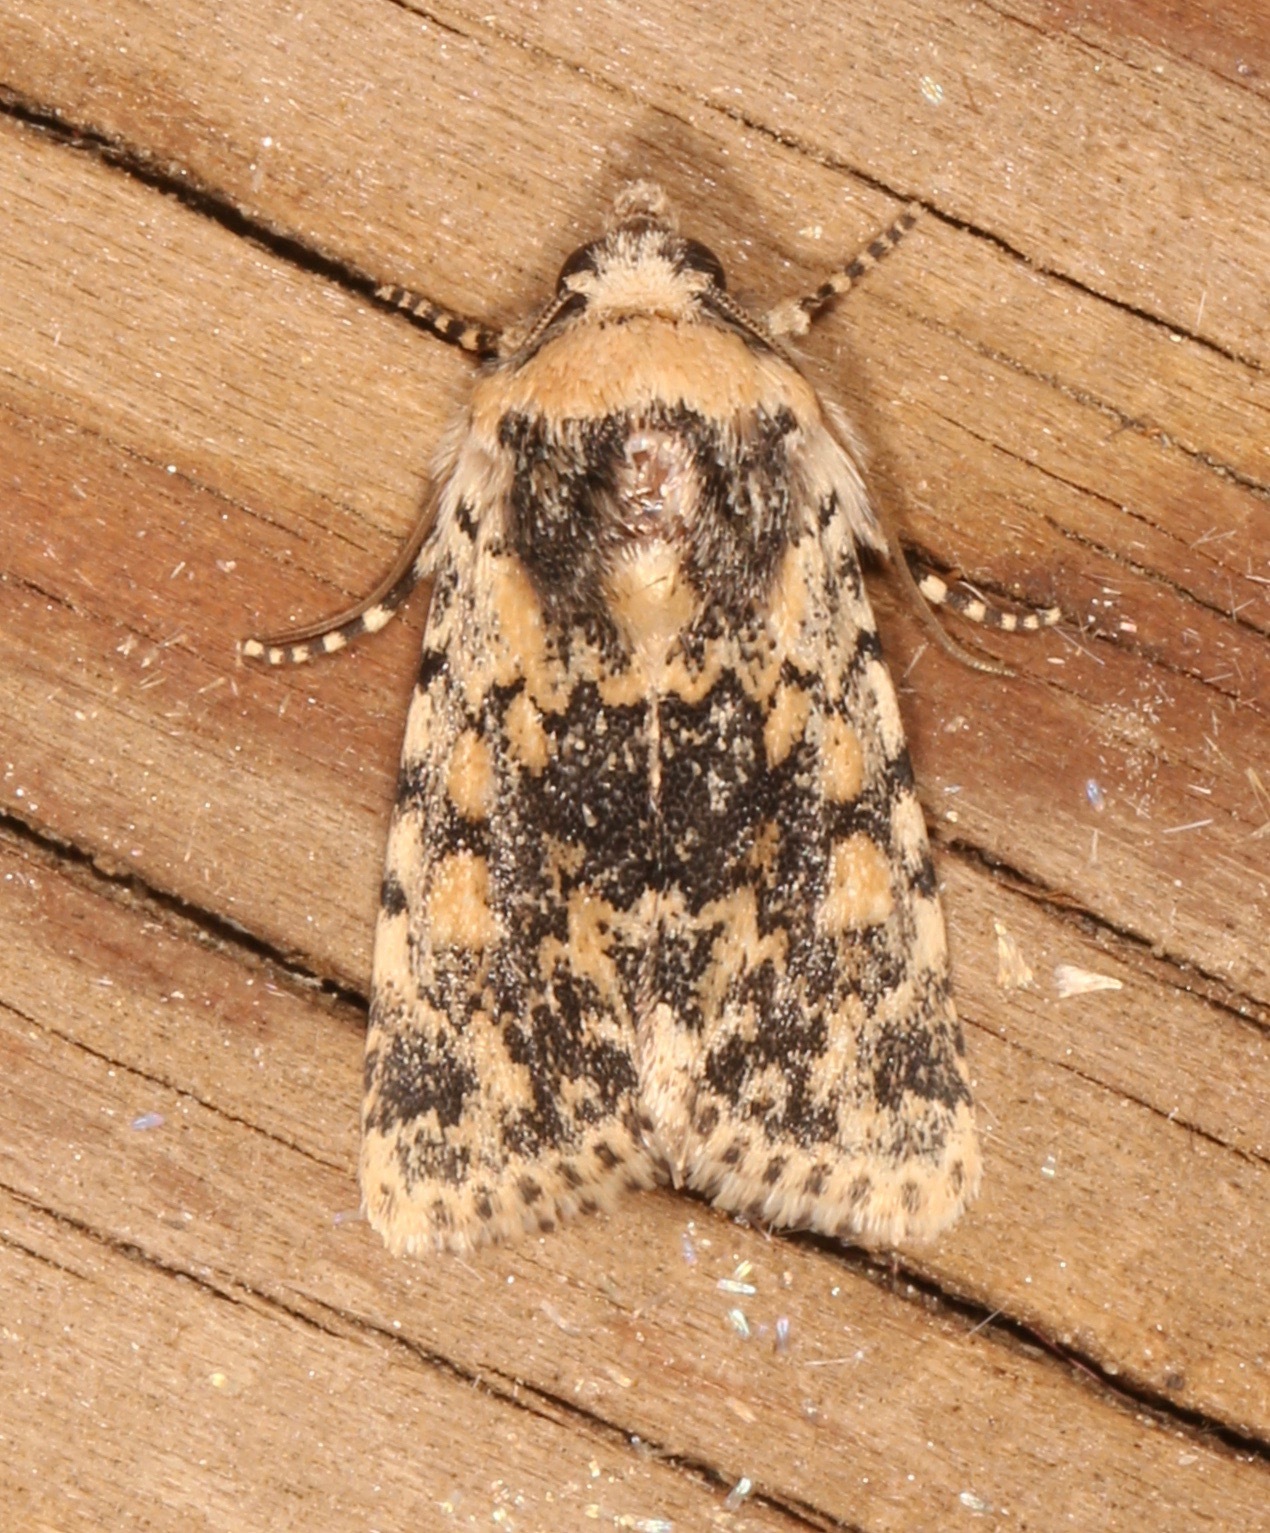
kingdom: Animalia
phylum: Arthropoda
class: Insecta
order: Lepidoptera
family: Noctuidae
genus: Sympistis
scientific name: Sympistis singularis
